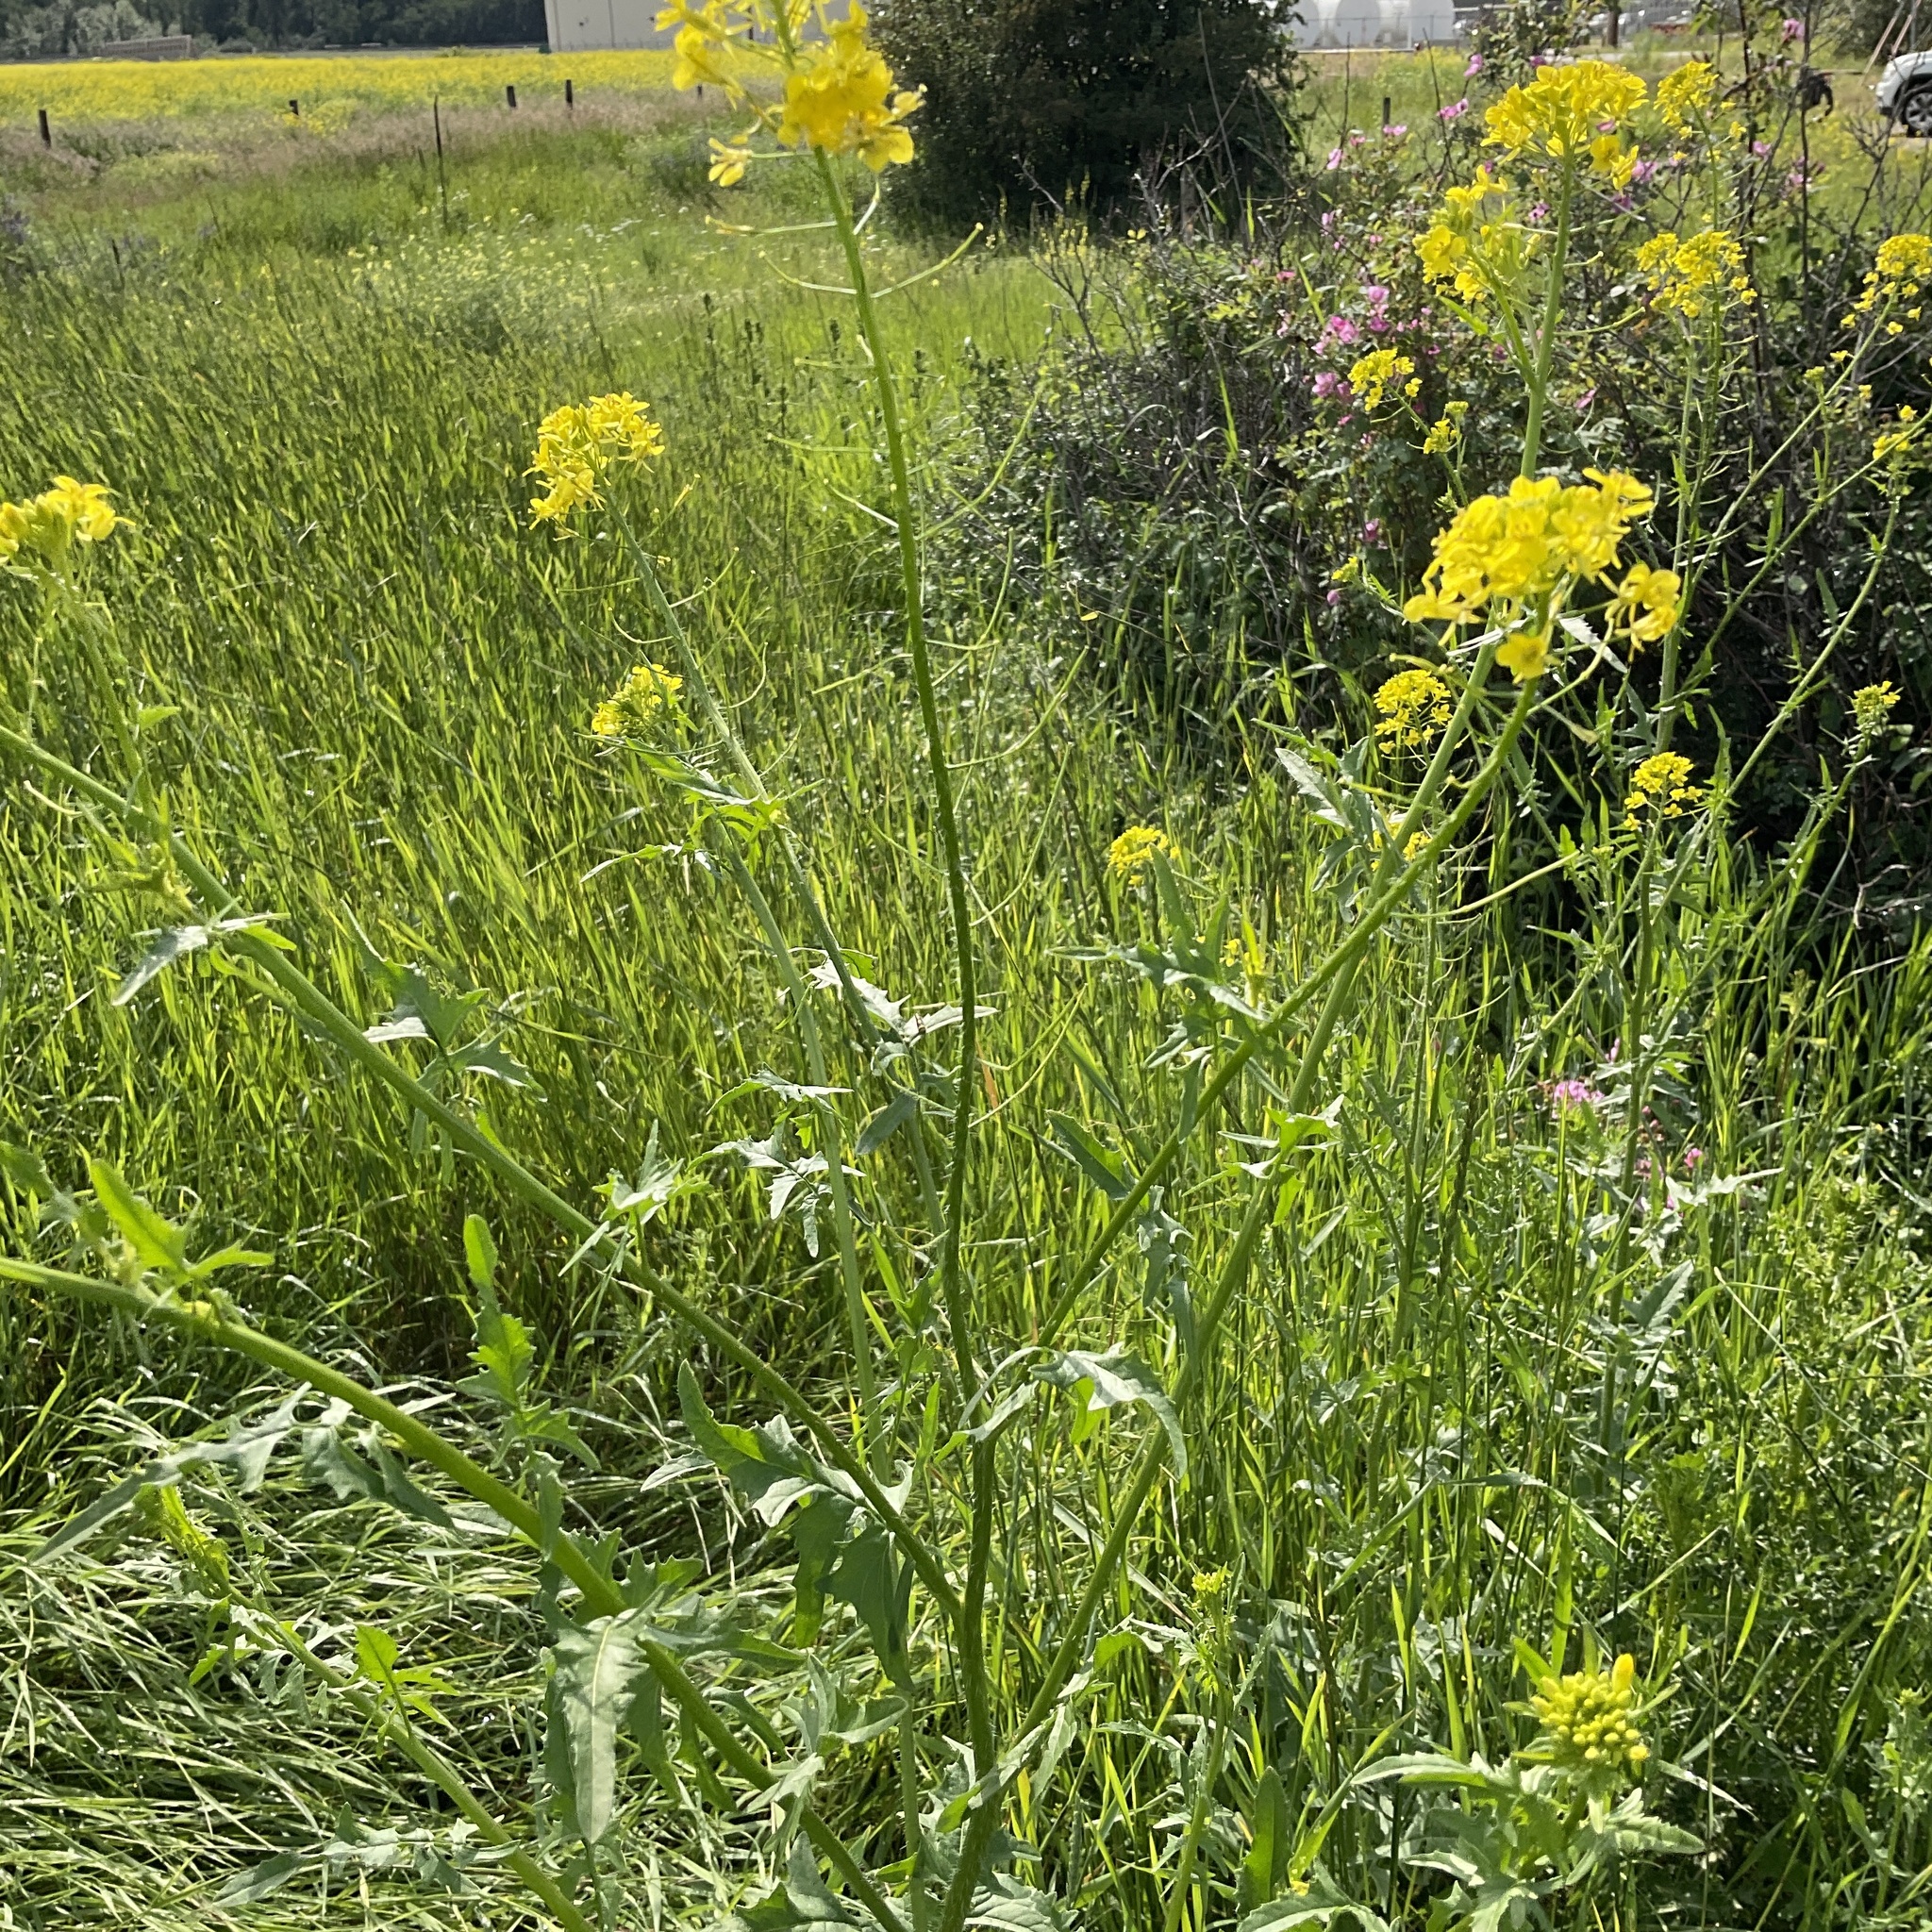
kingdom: Plantae
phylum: Tracheophyta
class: Magnoliopsida
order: Brassicales
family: Brassicaceae
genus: Sisymbrium
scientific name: Sisymbrium loeselii
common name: False london-rocket
